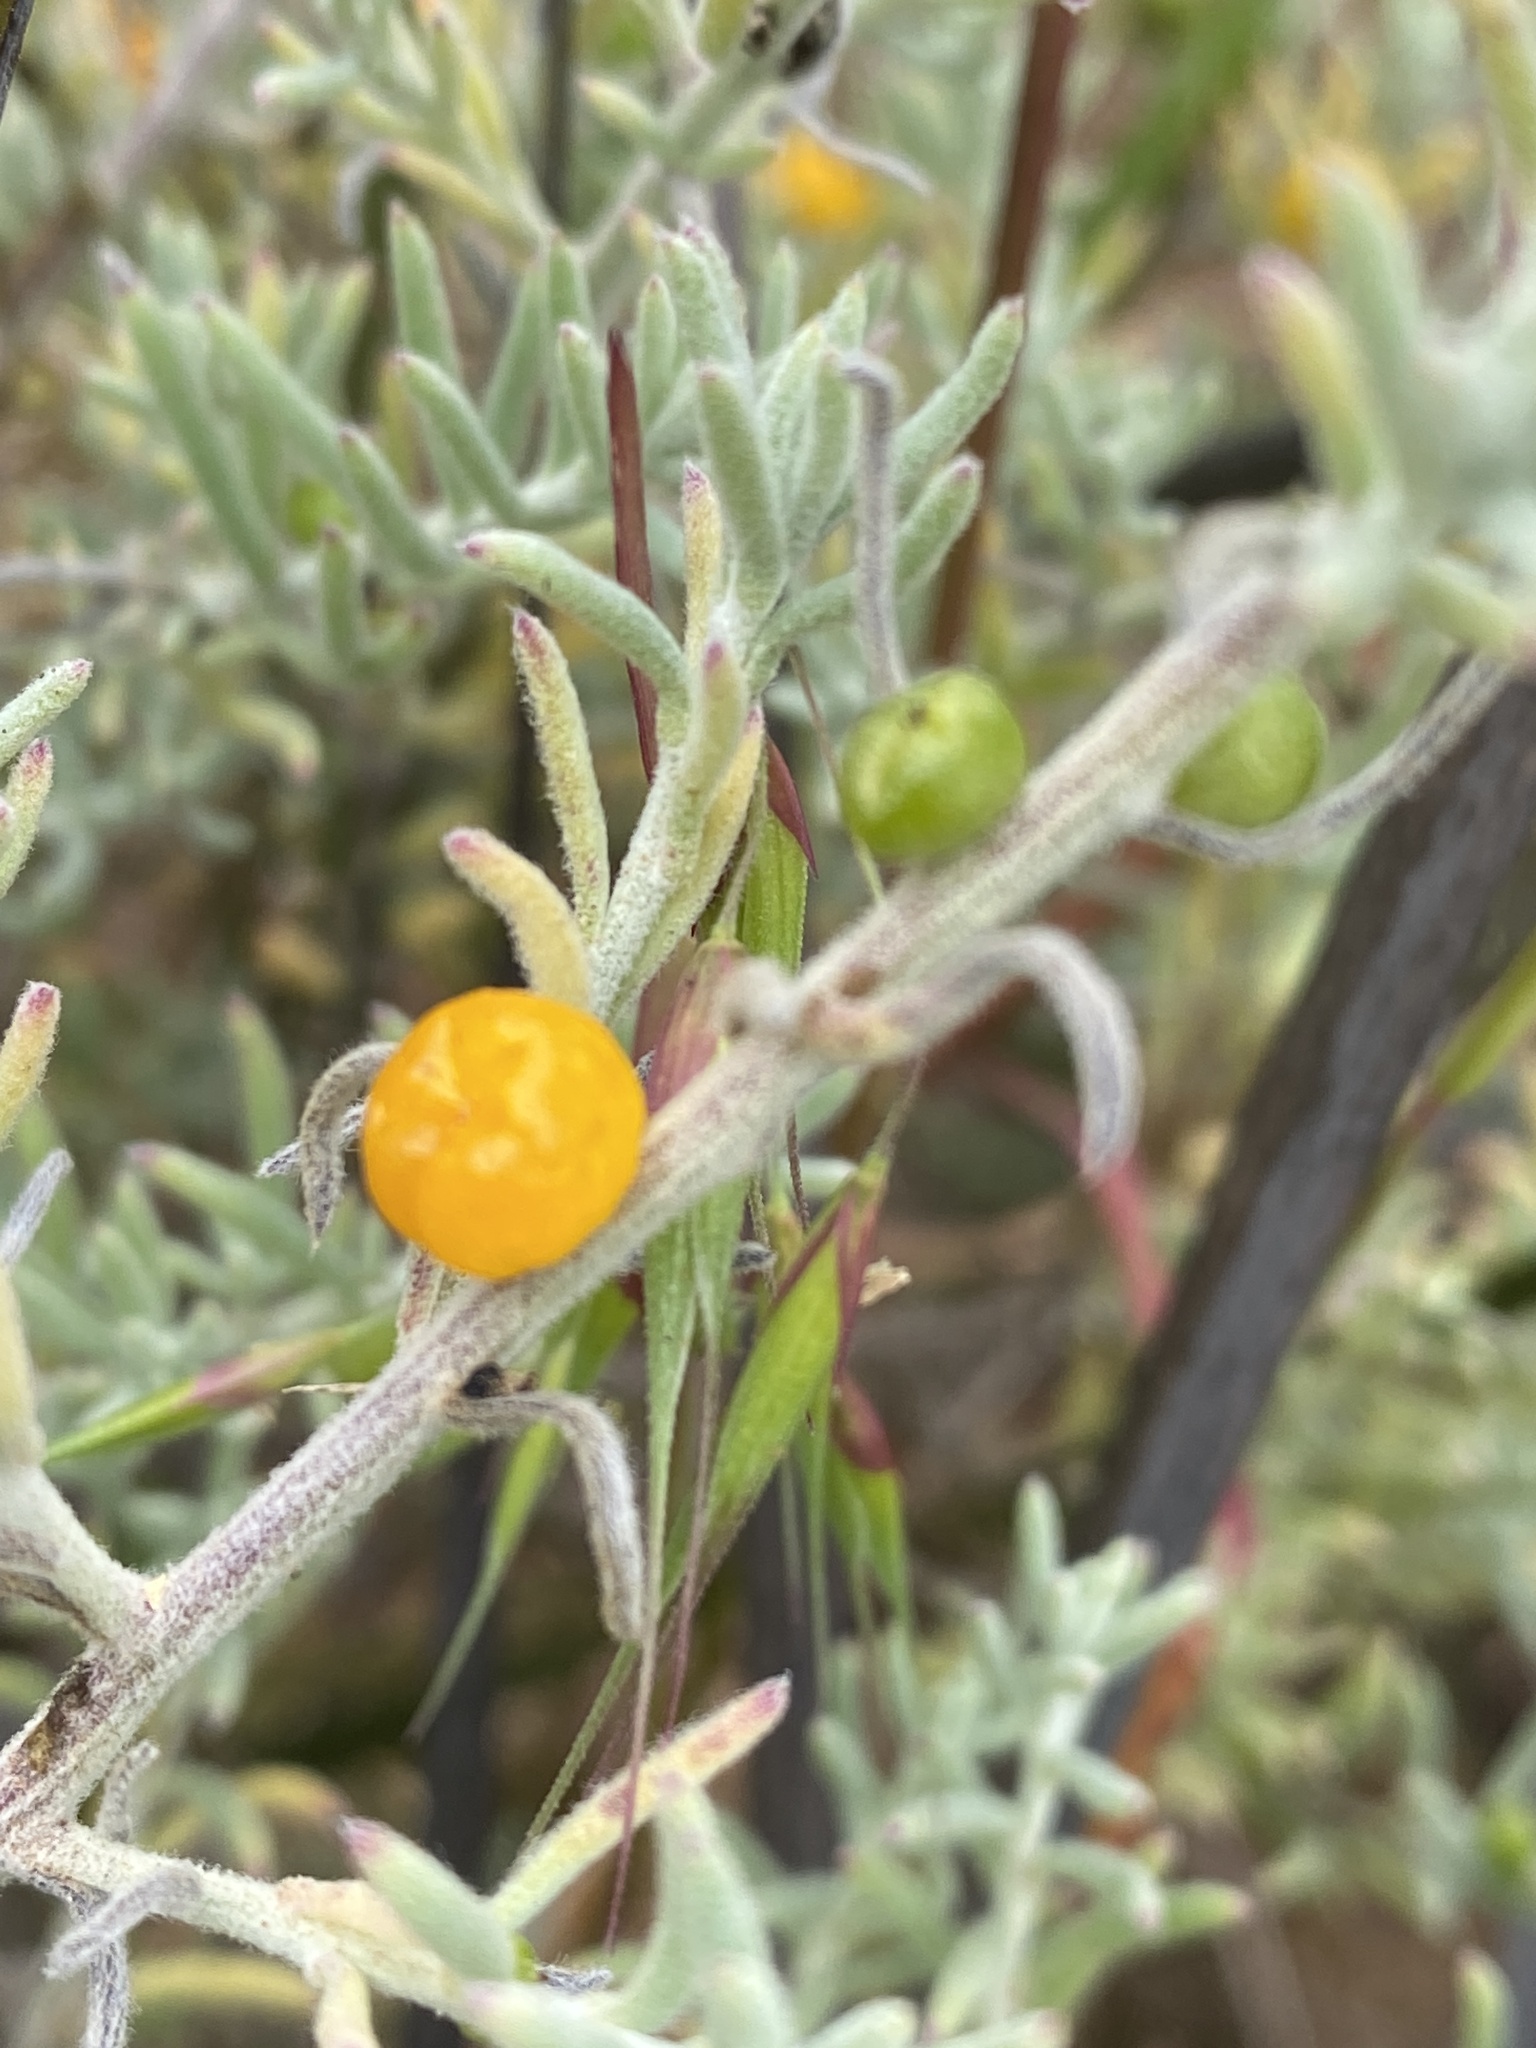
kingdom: Plantae
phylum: Tracheophyta
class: Magnoliopsida
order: Caryophyllales
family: Amaranthaceae
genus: Enchylaena
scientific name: Enchylaena tomentosa
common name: Ruby saltbush
